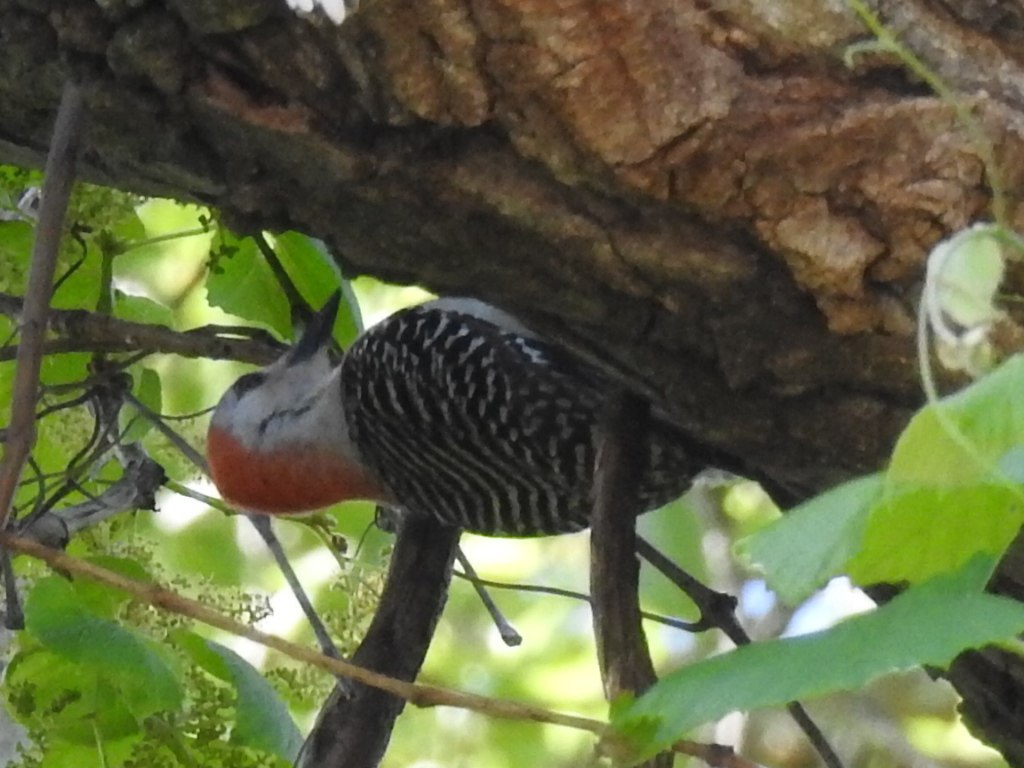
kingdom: Animalia
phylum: Chordata
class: Aves
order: Piciformes
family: Picidae
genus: Melanerpes
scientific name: Melanerpes carolinus
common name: Red-bellied woodpecker
